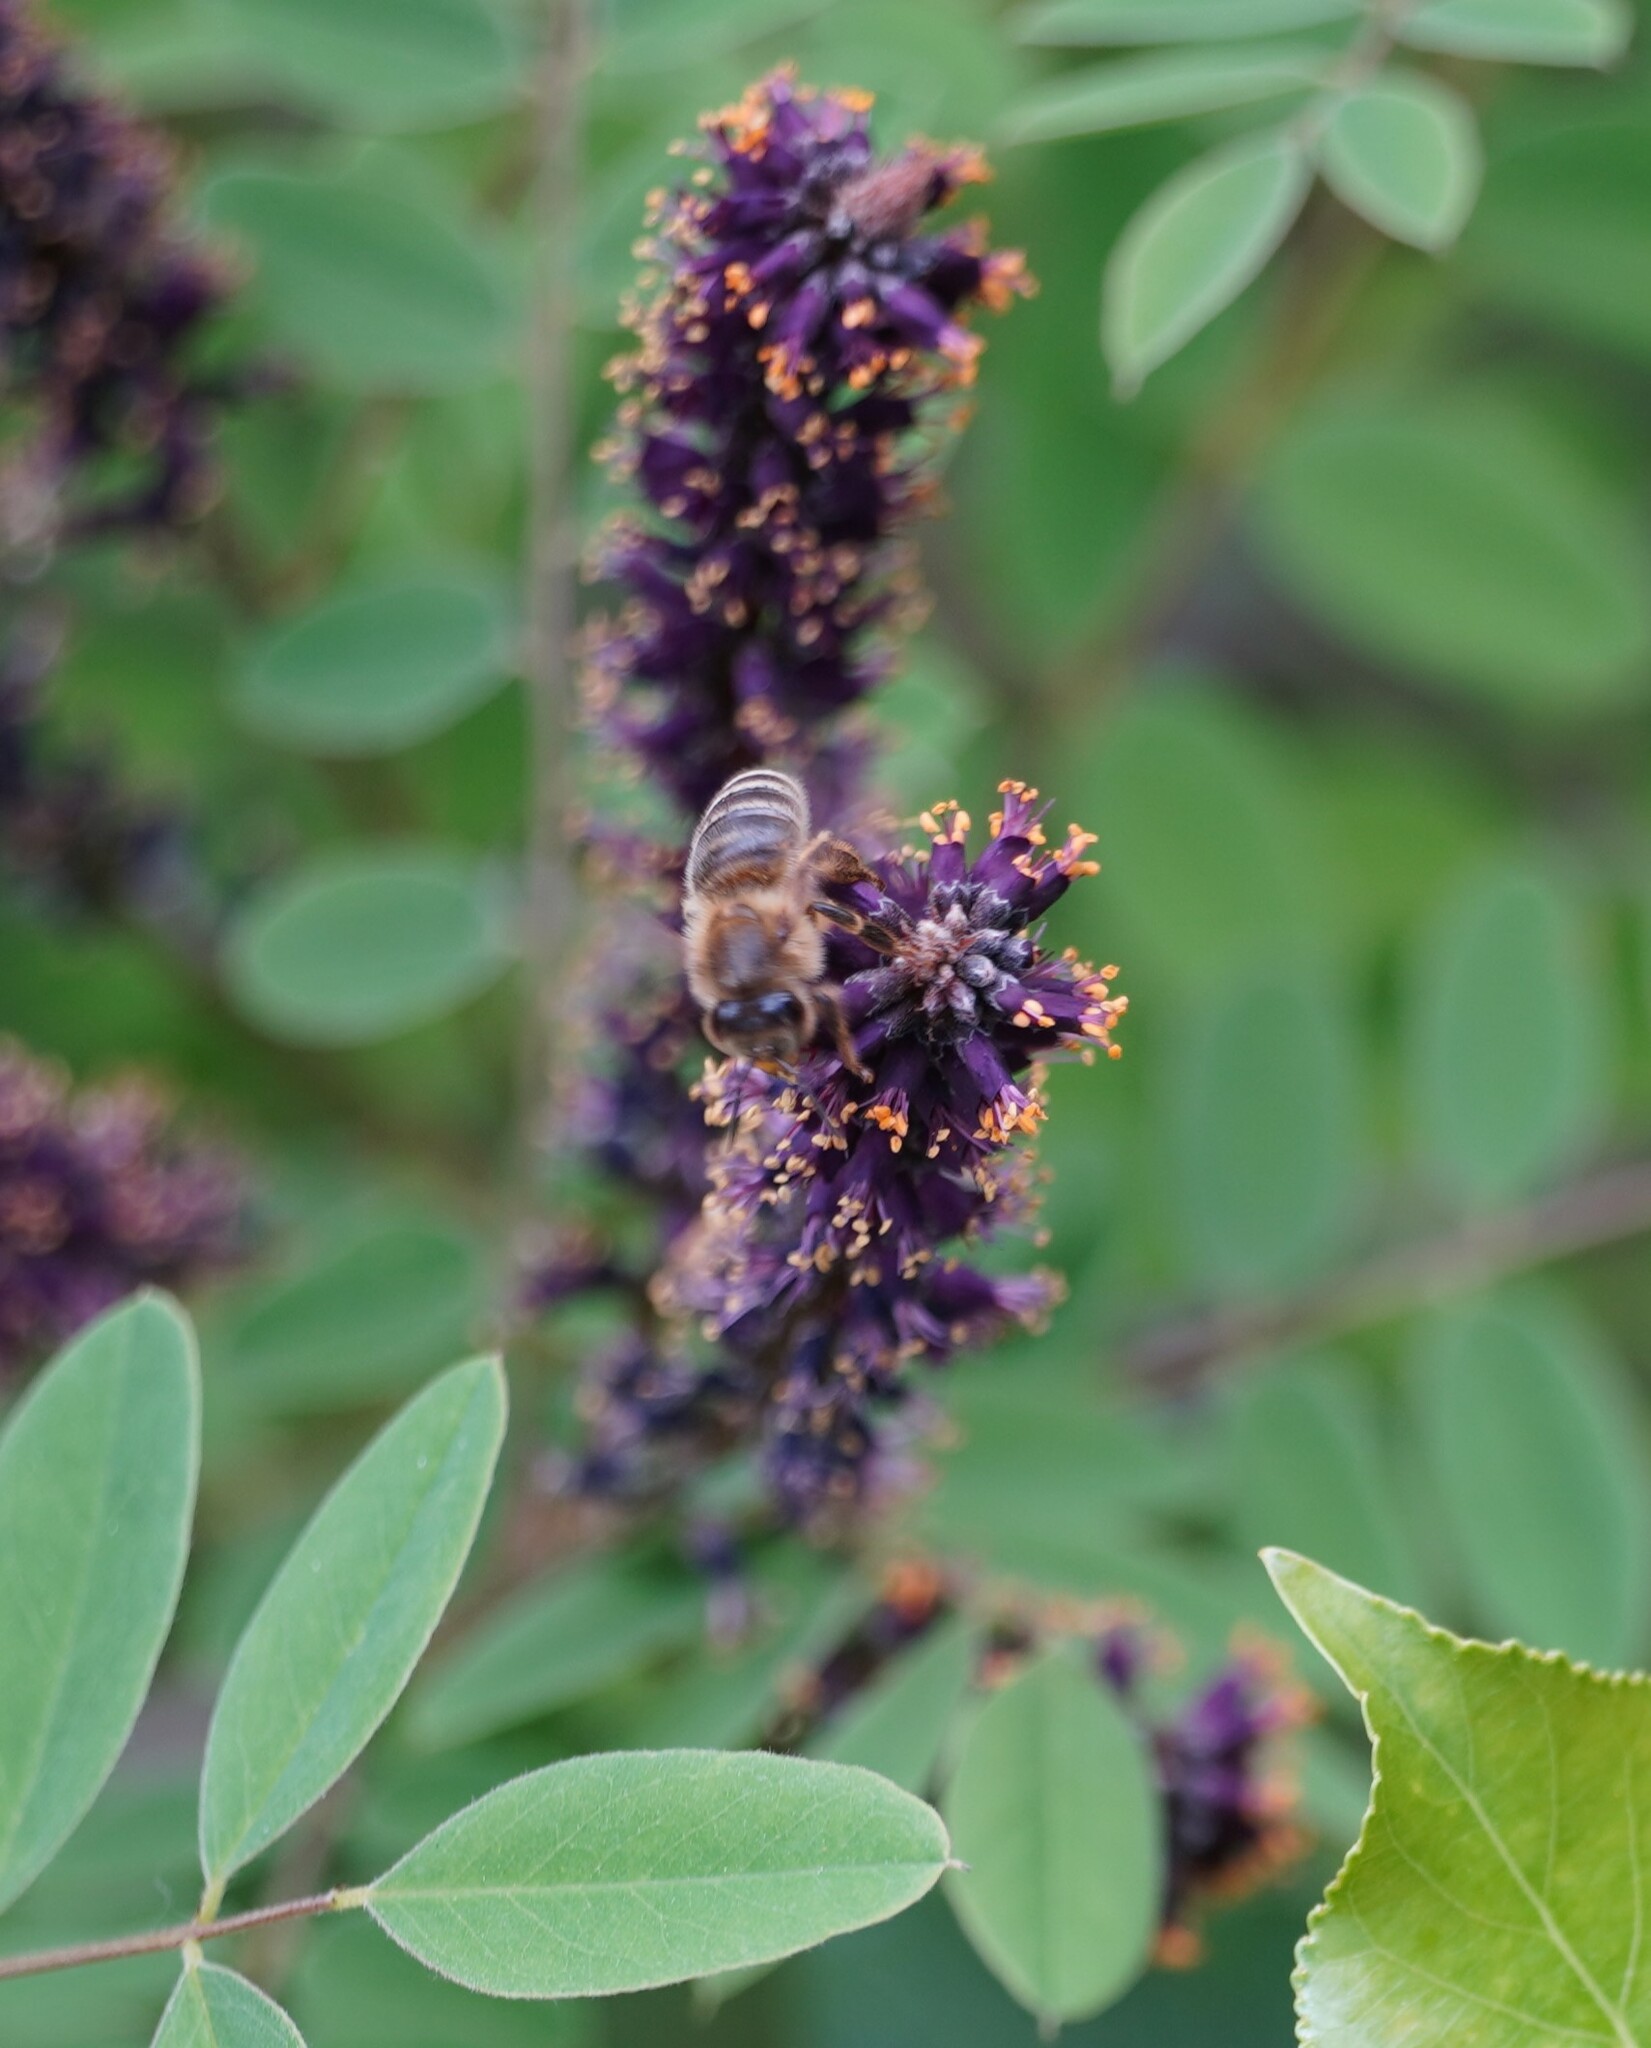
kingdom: Animalia
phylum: Arthropoda
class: Insecta
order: Hymenoptera
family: Apidae
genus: Apis
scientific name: Apis mellifera
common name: Honey bee
